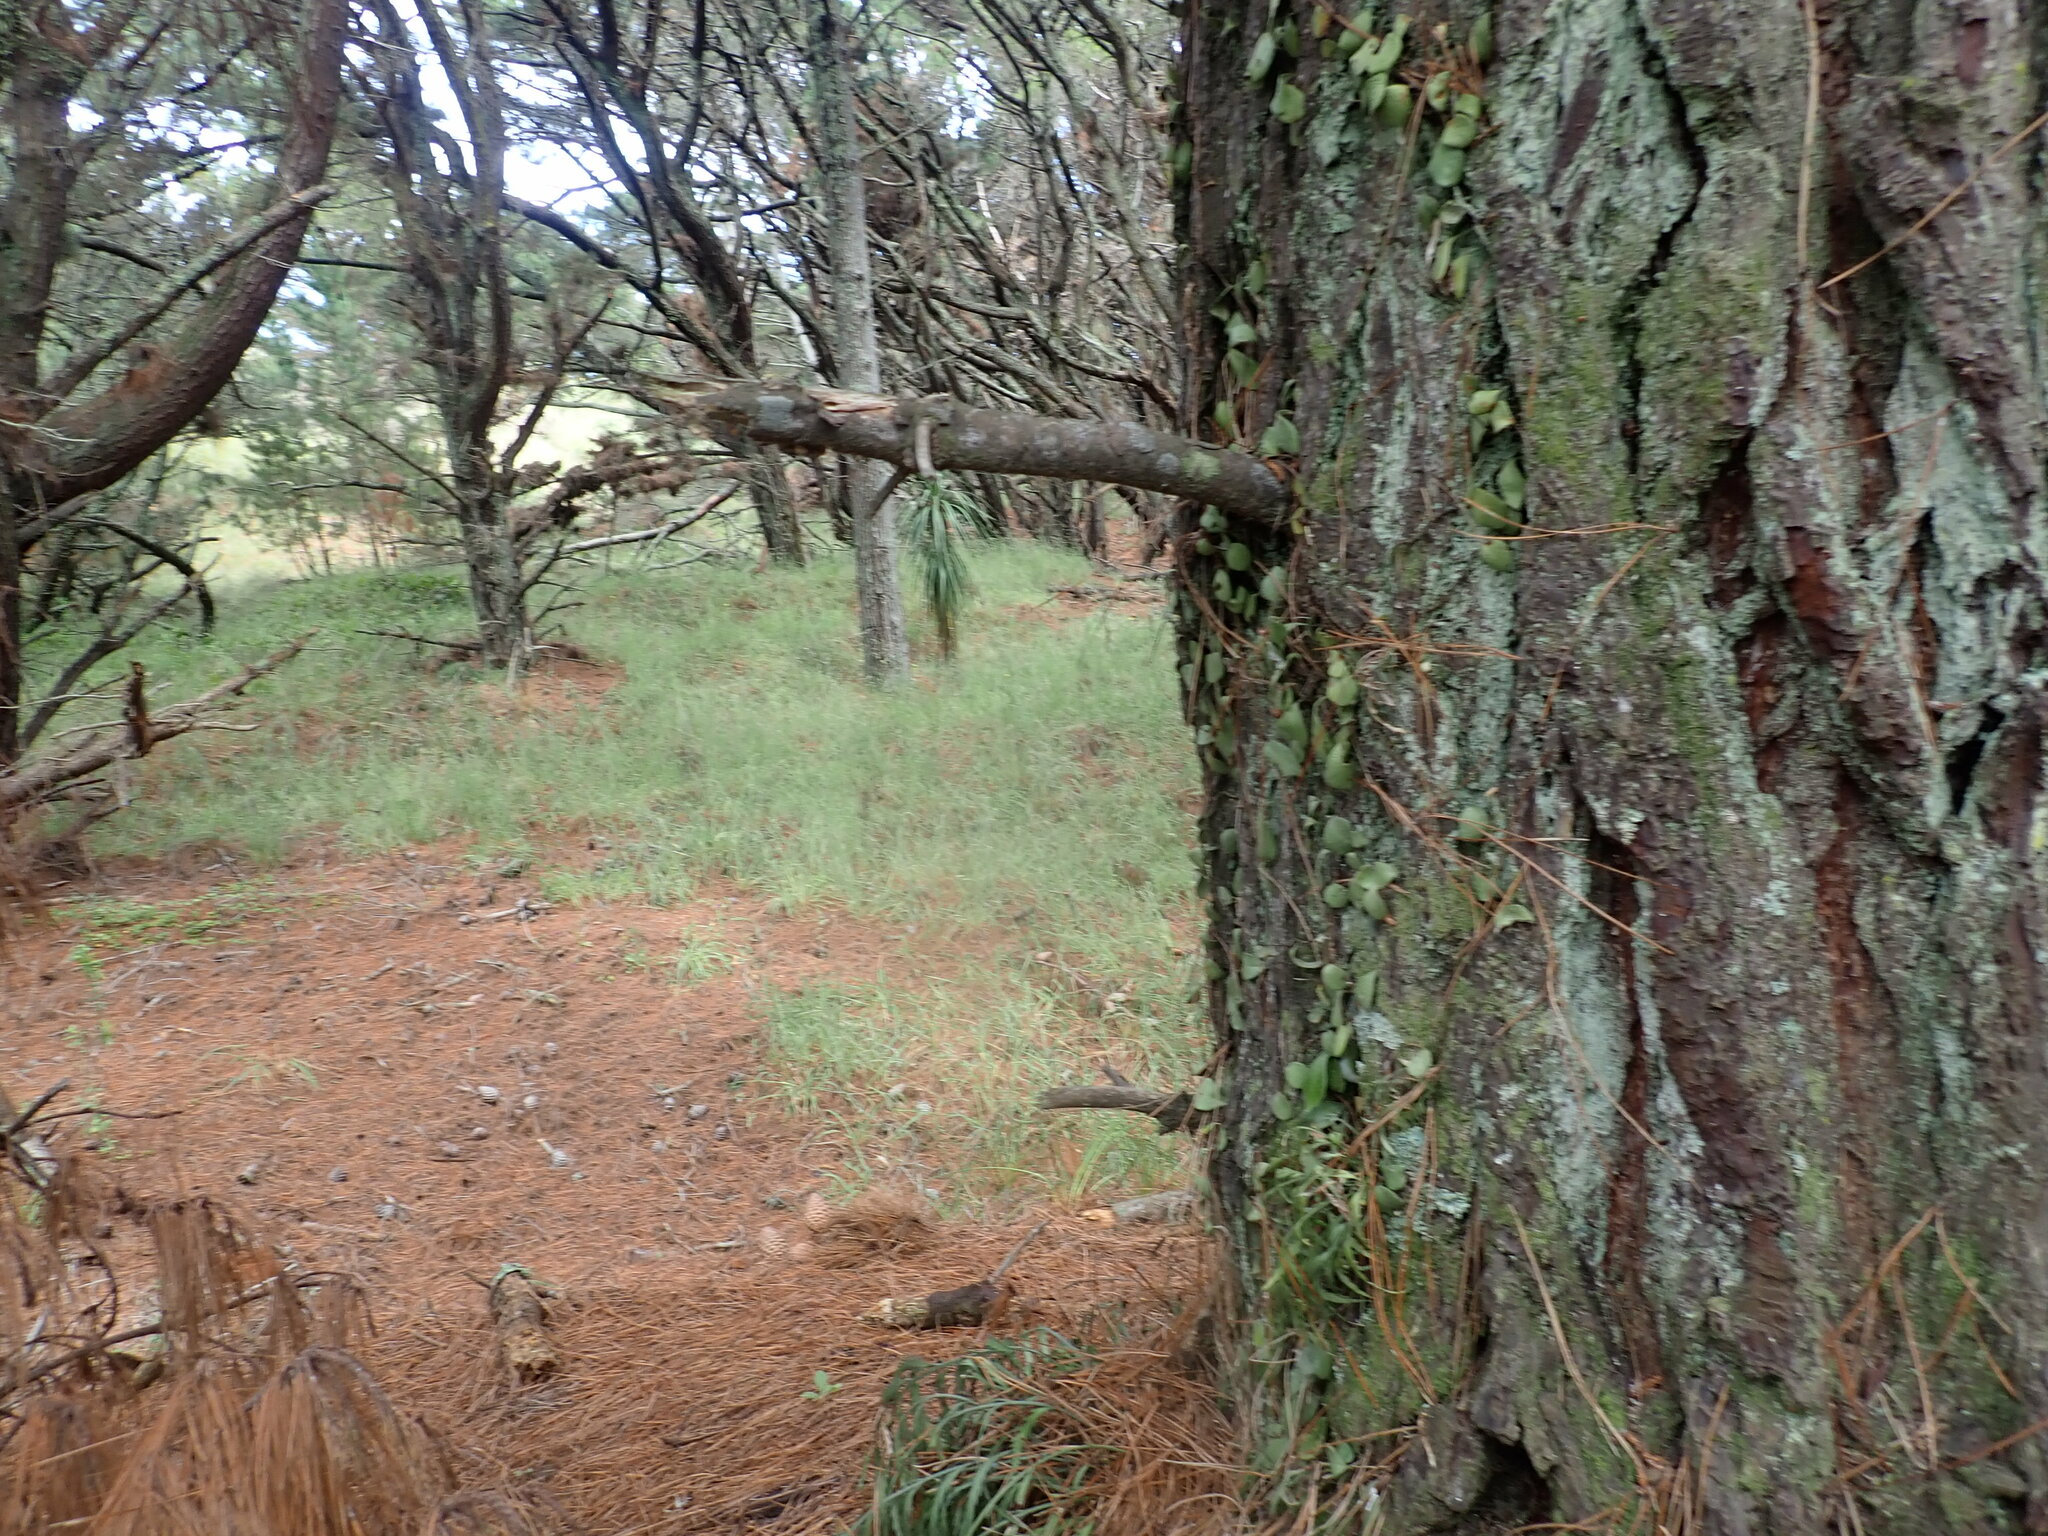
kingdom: Plantae
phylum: Tracheophyta
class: Liliopsida
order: Asparagales
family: Asparagaceae
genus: Cordyline
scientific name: Cordyline australis
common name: Cabbage-palm
